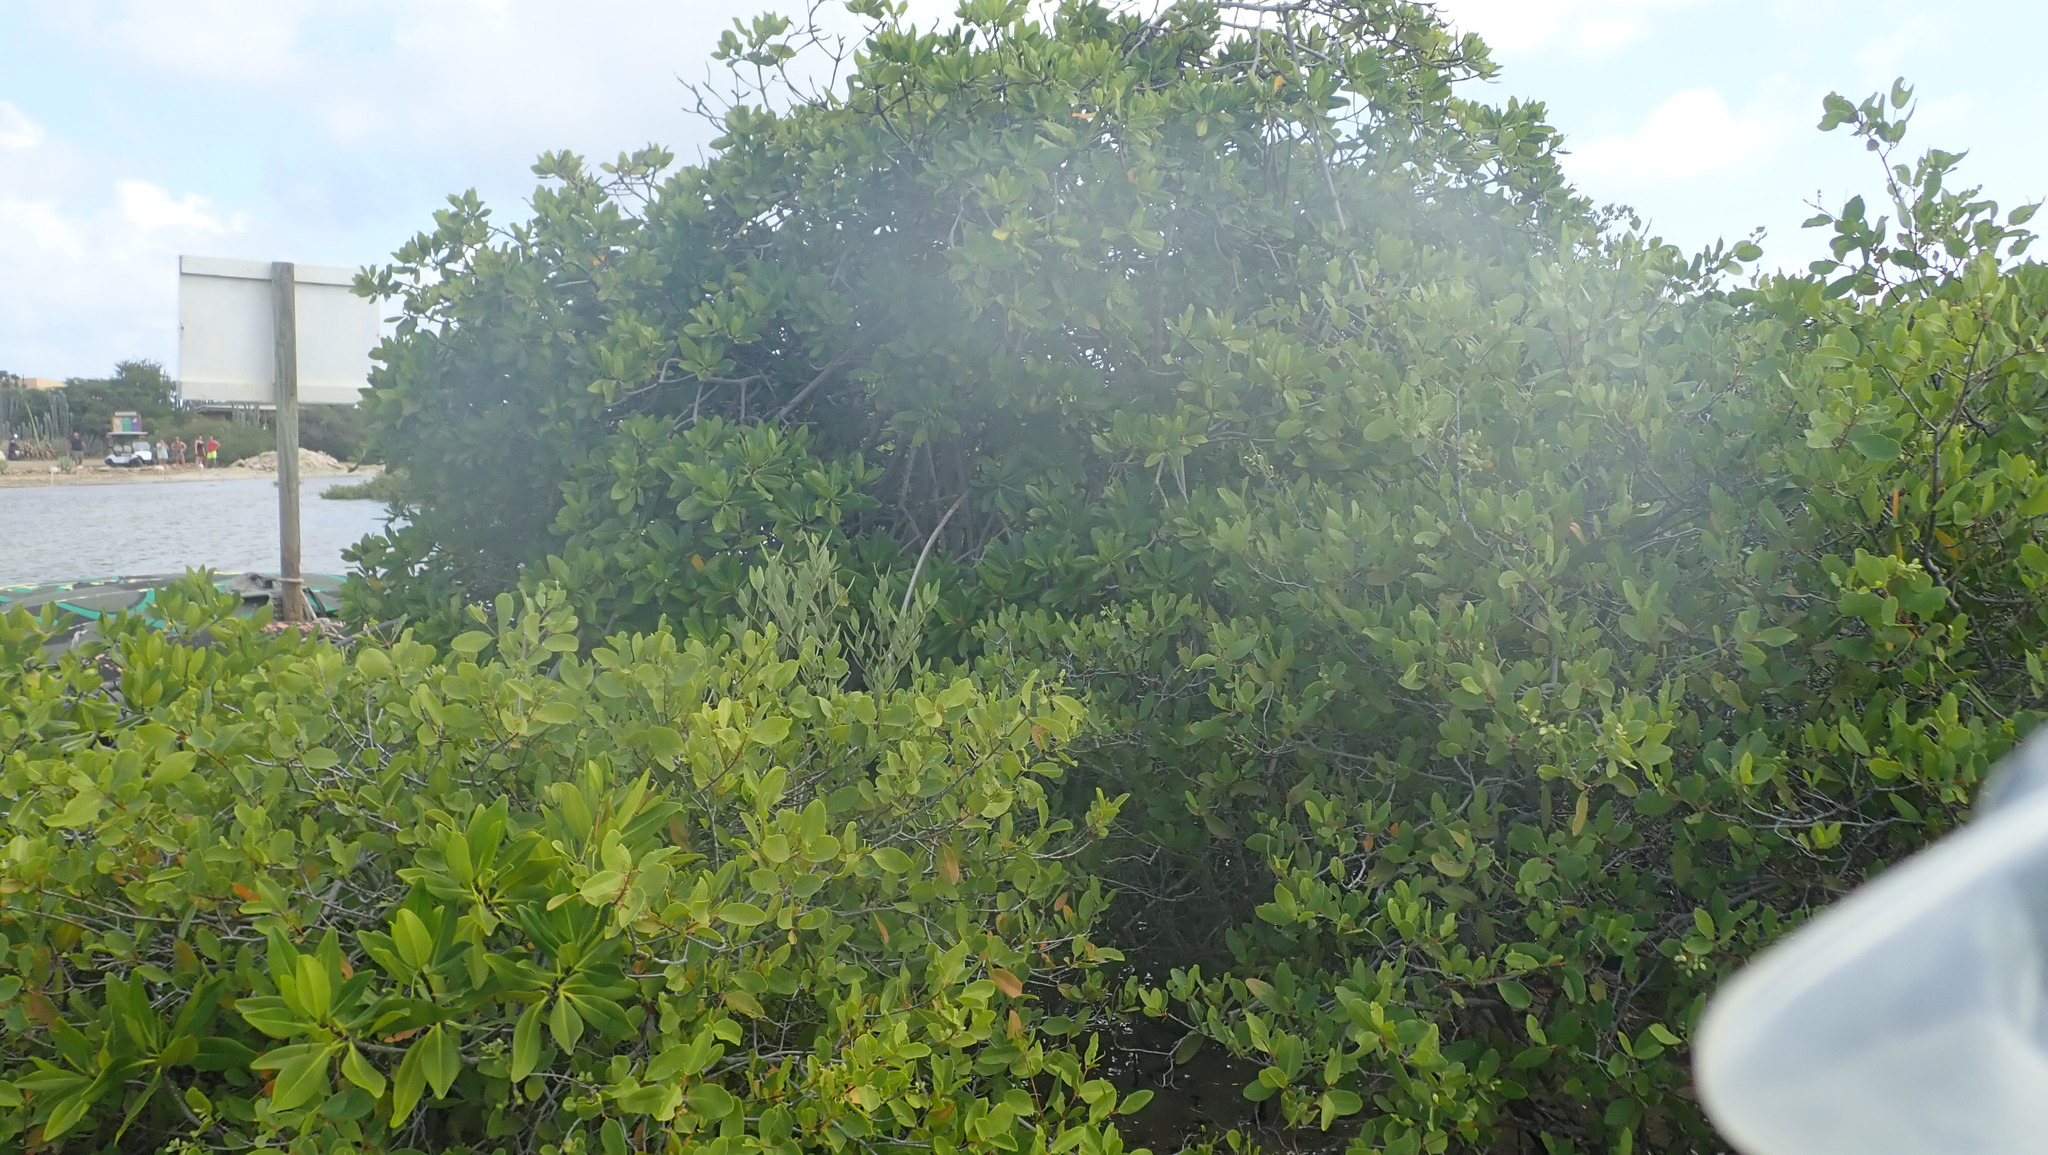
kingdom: Plantae
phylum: Tracheophyta
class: Magnoliopsida
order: Lamiales
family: Acanthaceae
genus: Avicennia
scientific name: Avicennia germinans
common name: Black mangrove
